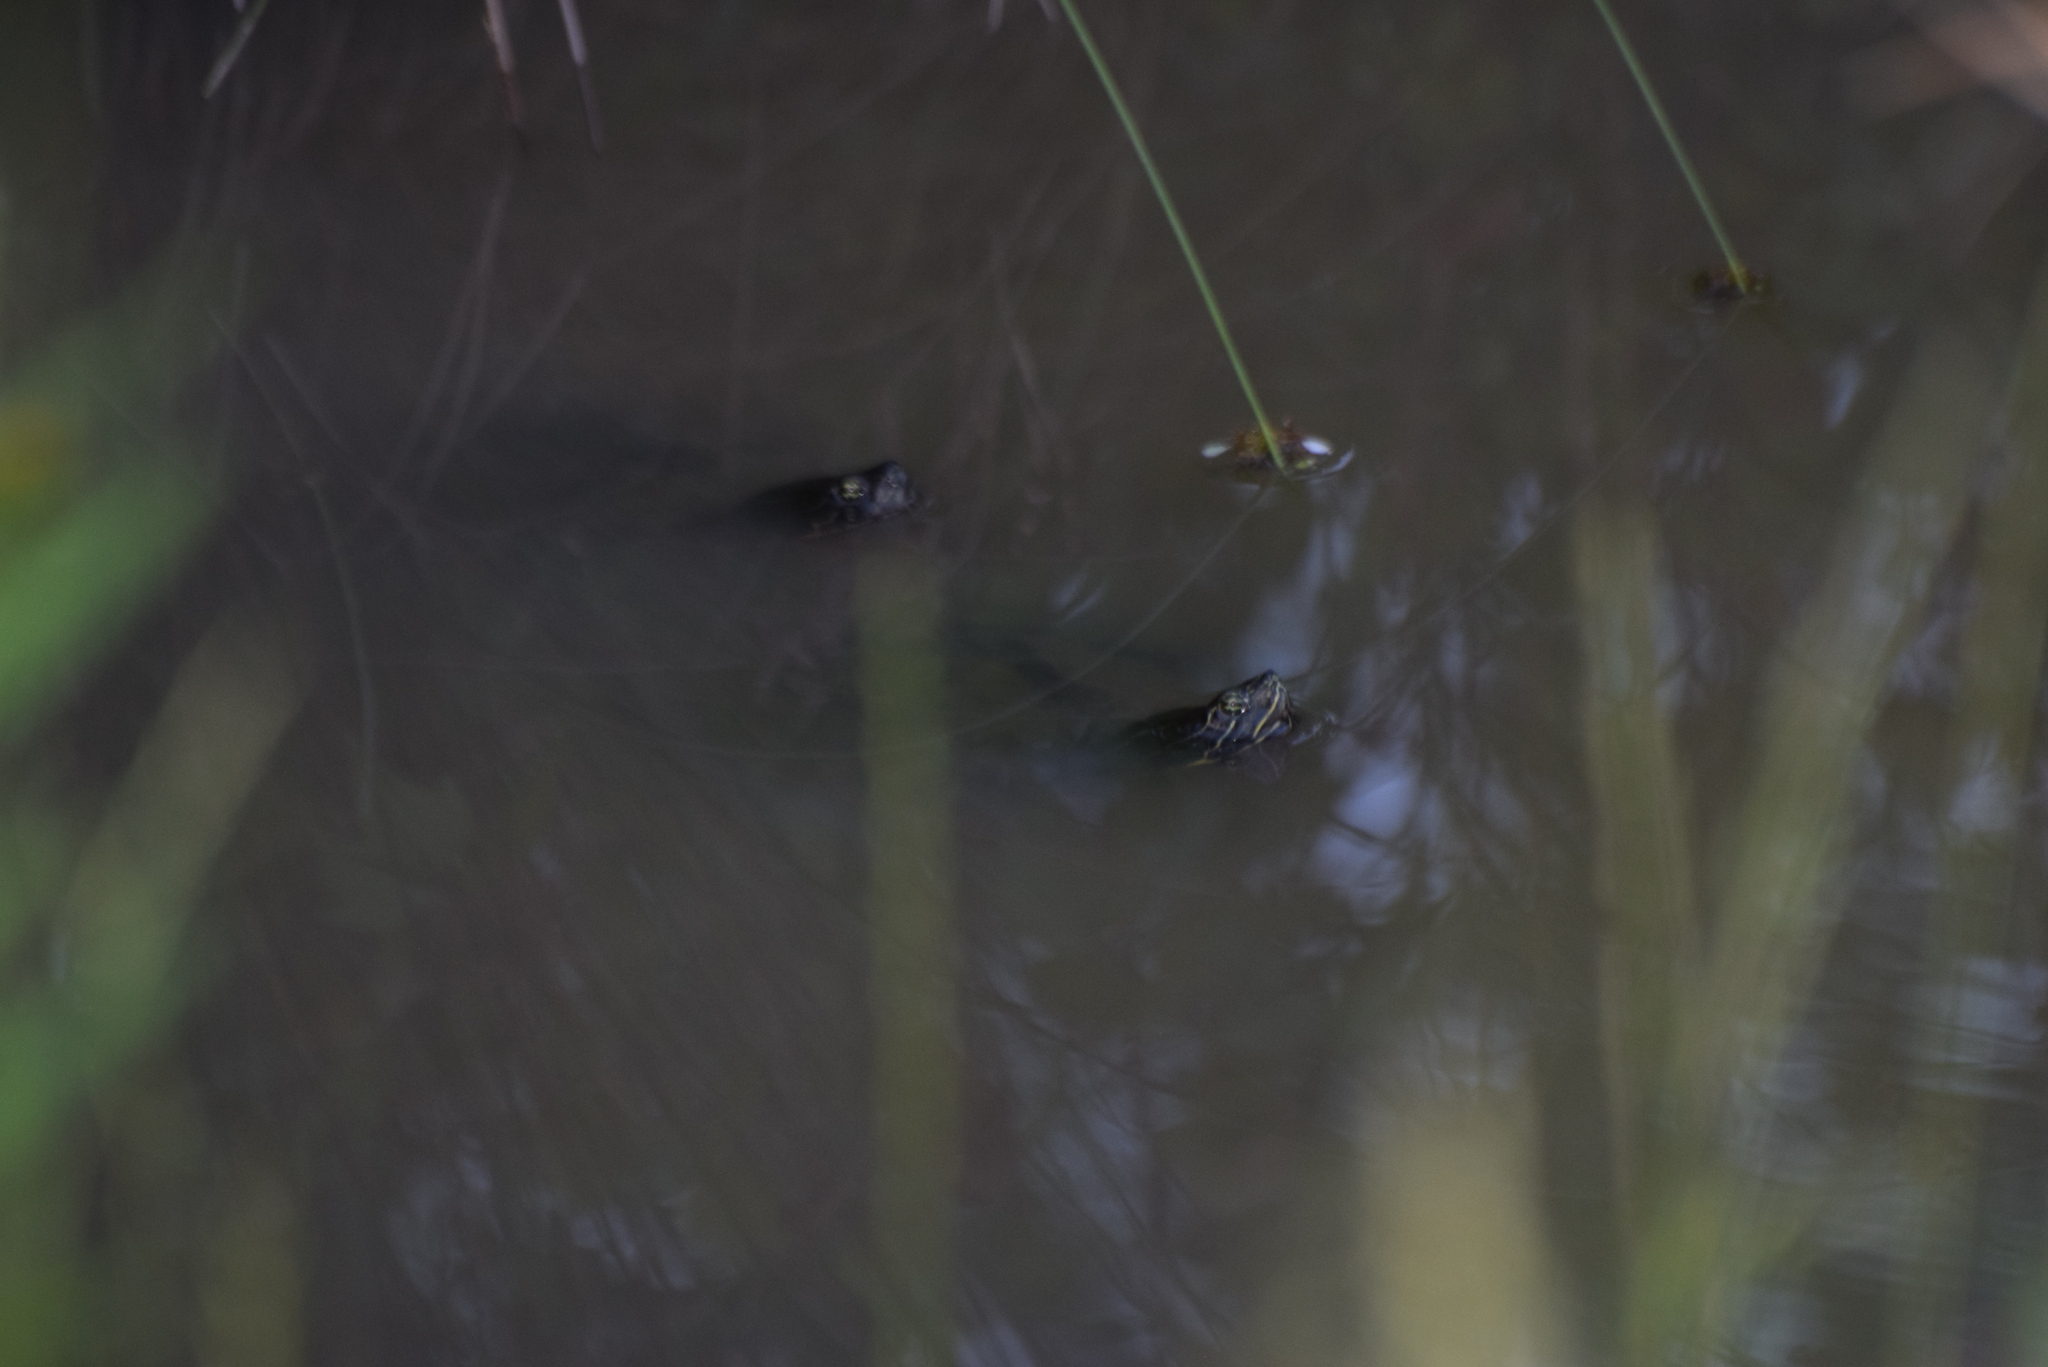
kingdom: Animalia
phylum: Chordata
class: Testudines
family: Emydidae
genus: Pseudemys
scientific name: Pseudemys rubriventris
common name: American red-bellied turtle
